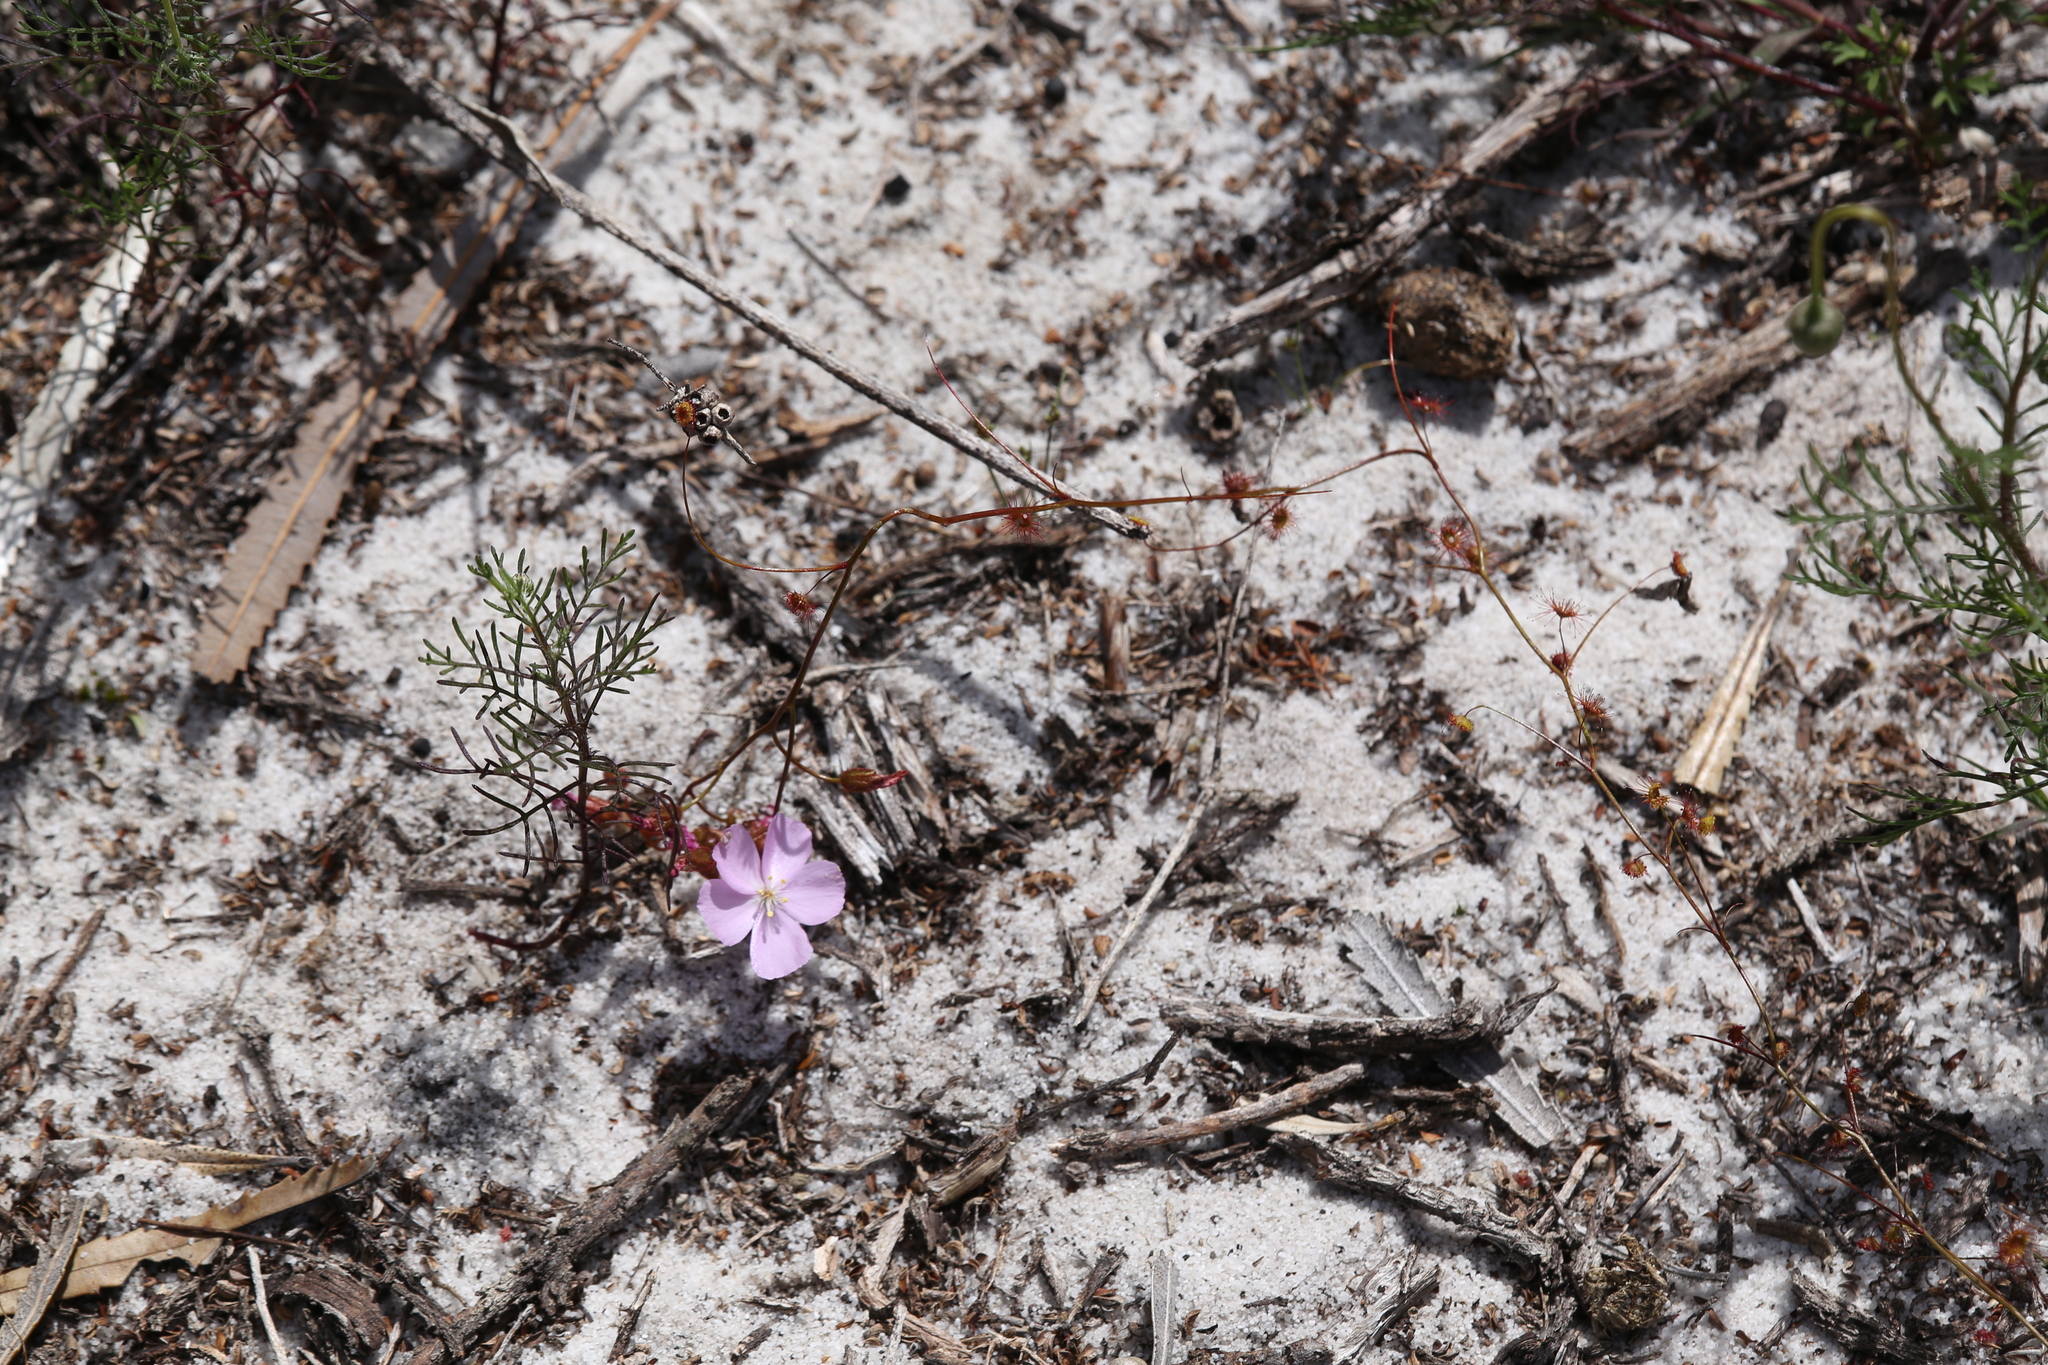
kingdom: Plantae
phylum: Tracheophyta
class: Magnoliopsida
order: Caryophyllales
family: Droseraceae
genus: Drosera
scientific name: Drosera
